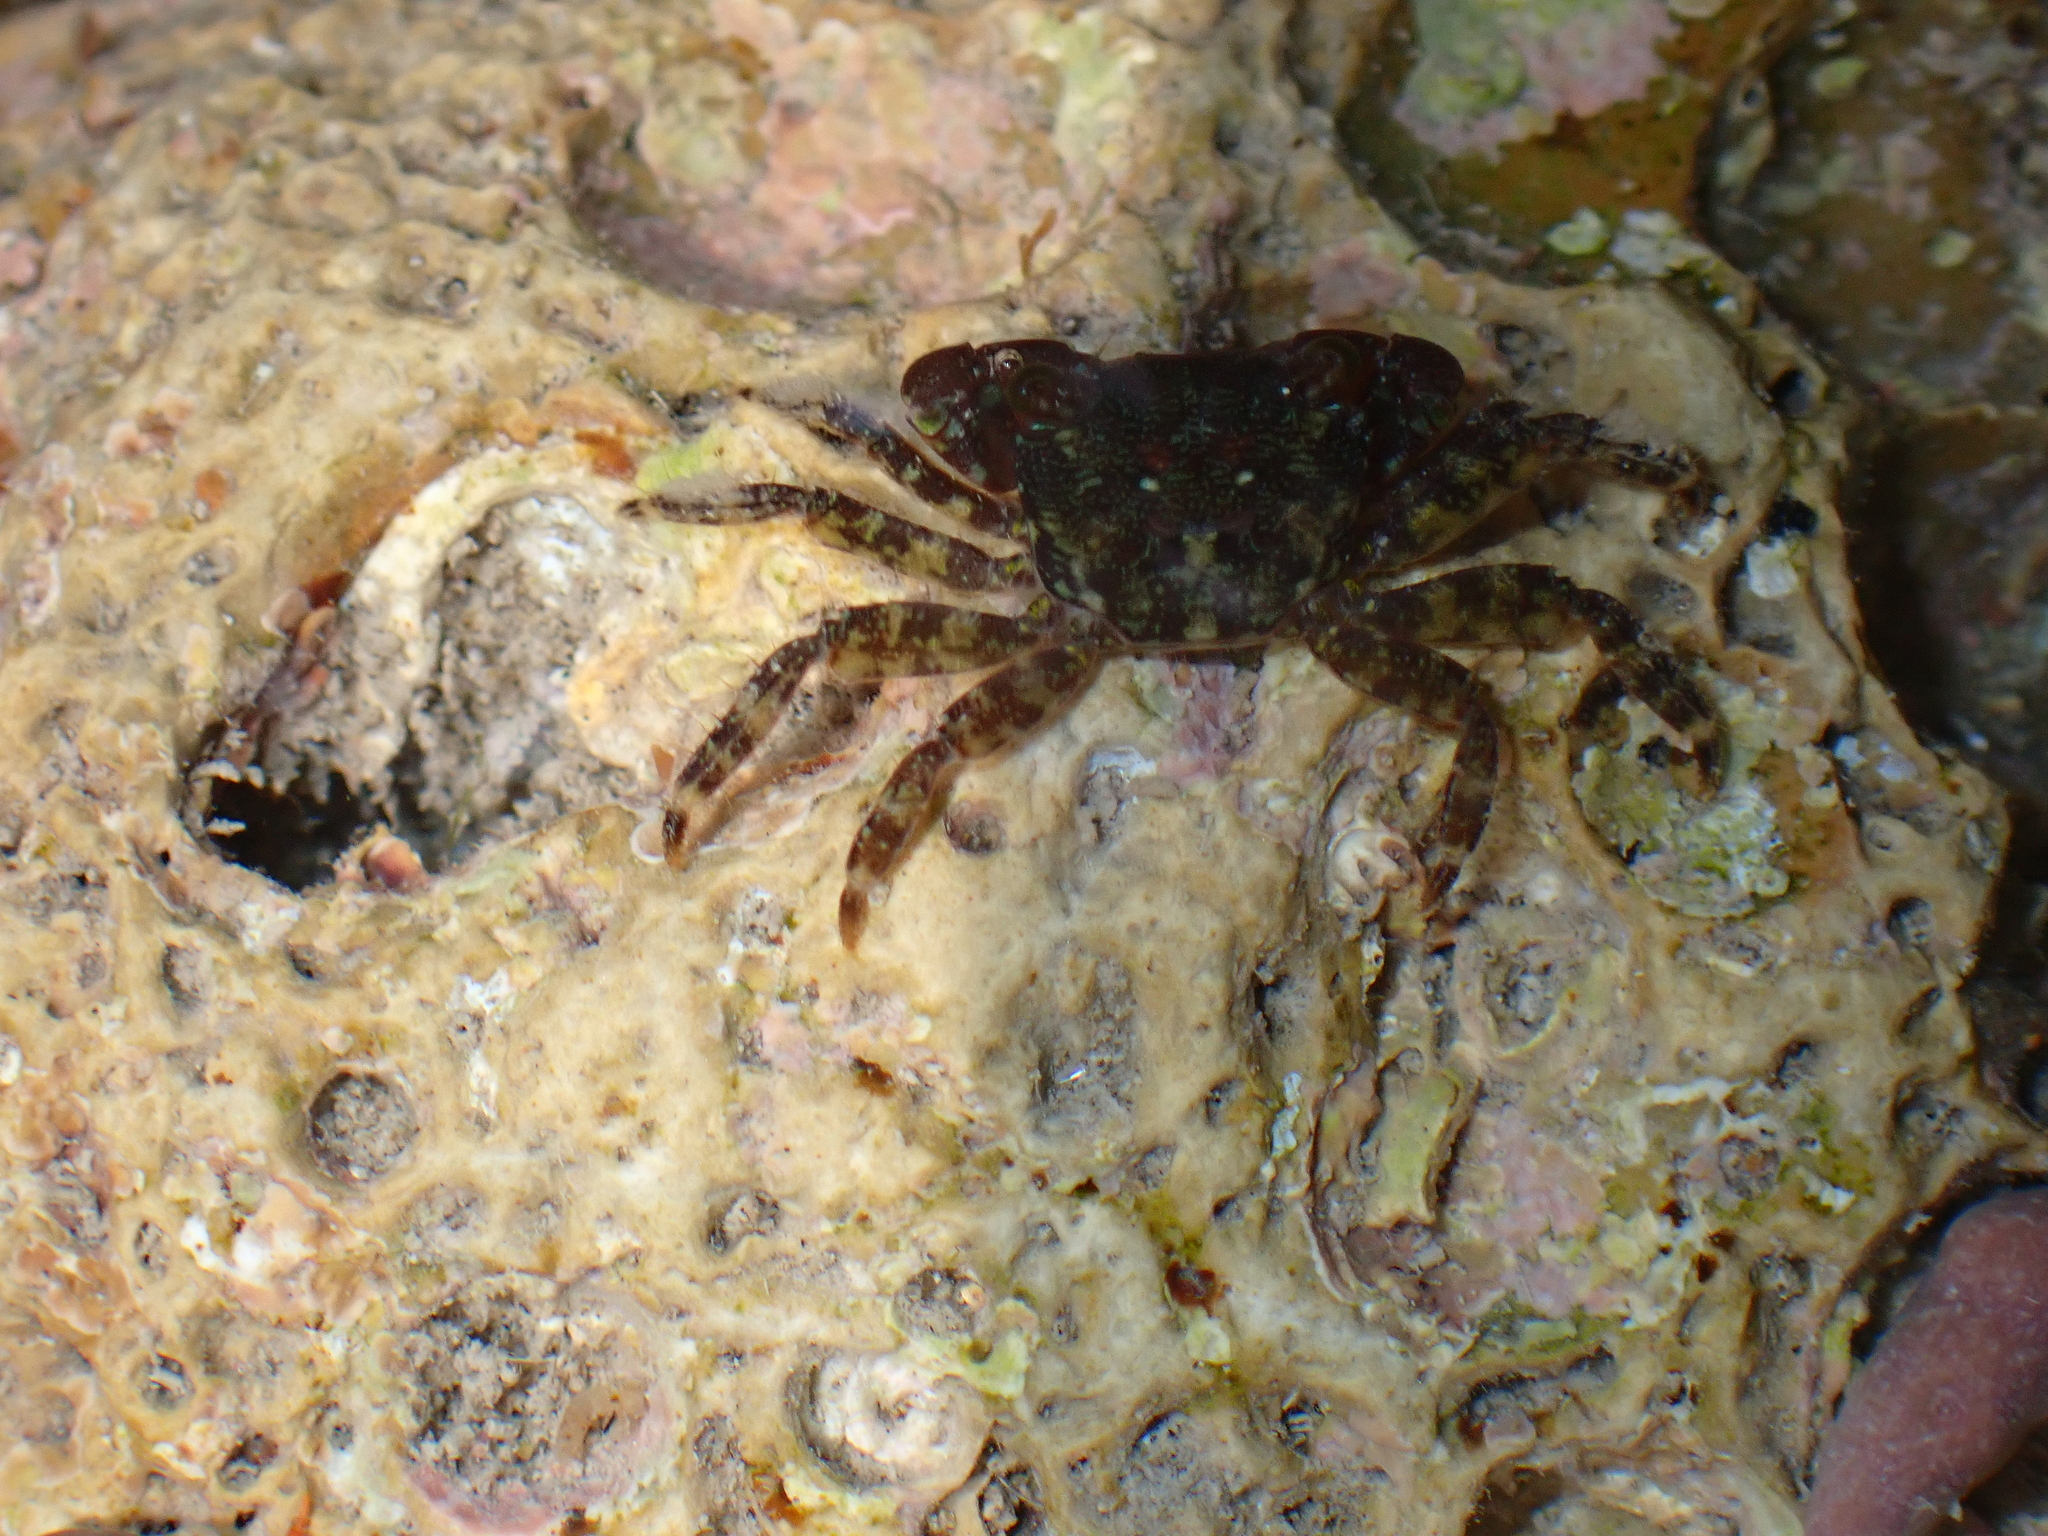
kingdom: Animalia
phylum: Arthropoda
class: Malacostraca
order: Decapoda
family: Grapsidae
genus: Pachygrapsus
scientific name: Pachygrapsus marmoratus
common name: Marbled rock crab
